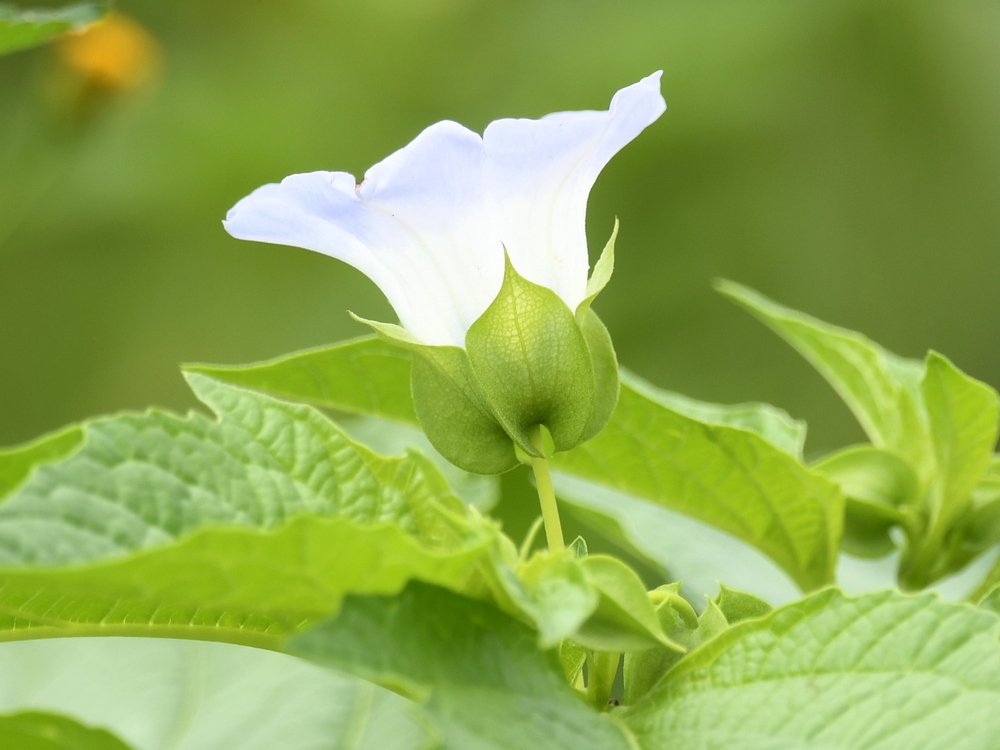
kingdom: Plantae
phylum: Tracheophyta
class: Magnoliopsida
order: Solanales
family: Solanaceae
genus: Nicandra
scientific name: Nicandra physalodes
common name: Apple-of-peru
